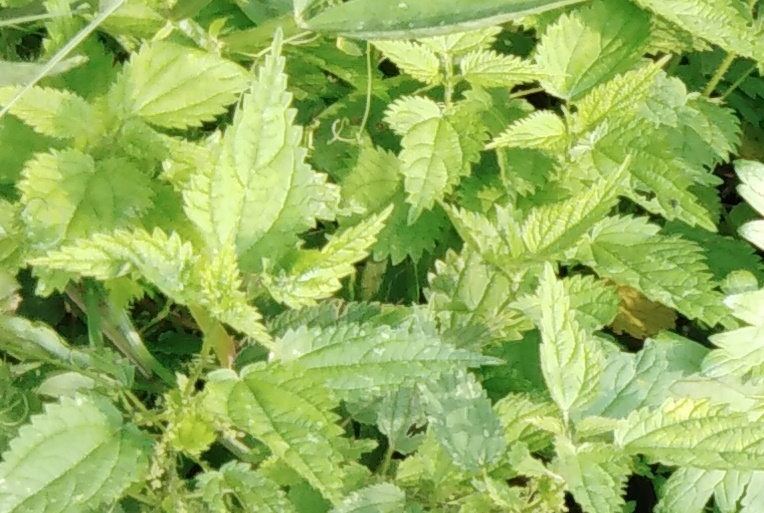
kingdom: Plantae
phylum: Tracheophyta
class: Magnoliopsida
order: Rosales
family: Urticaceae
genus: Urtica
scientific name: Urtica dioica
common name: Common nettle
